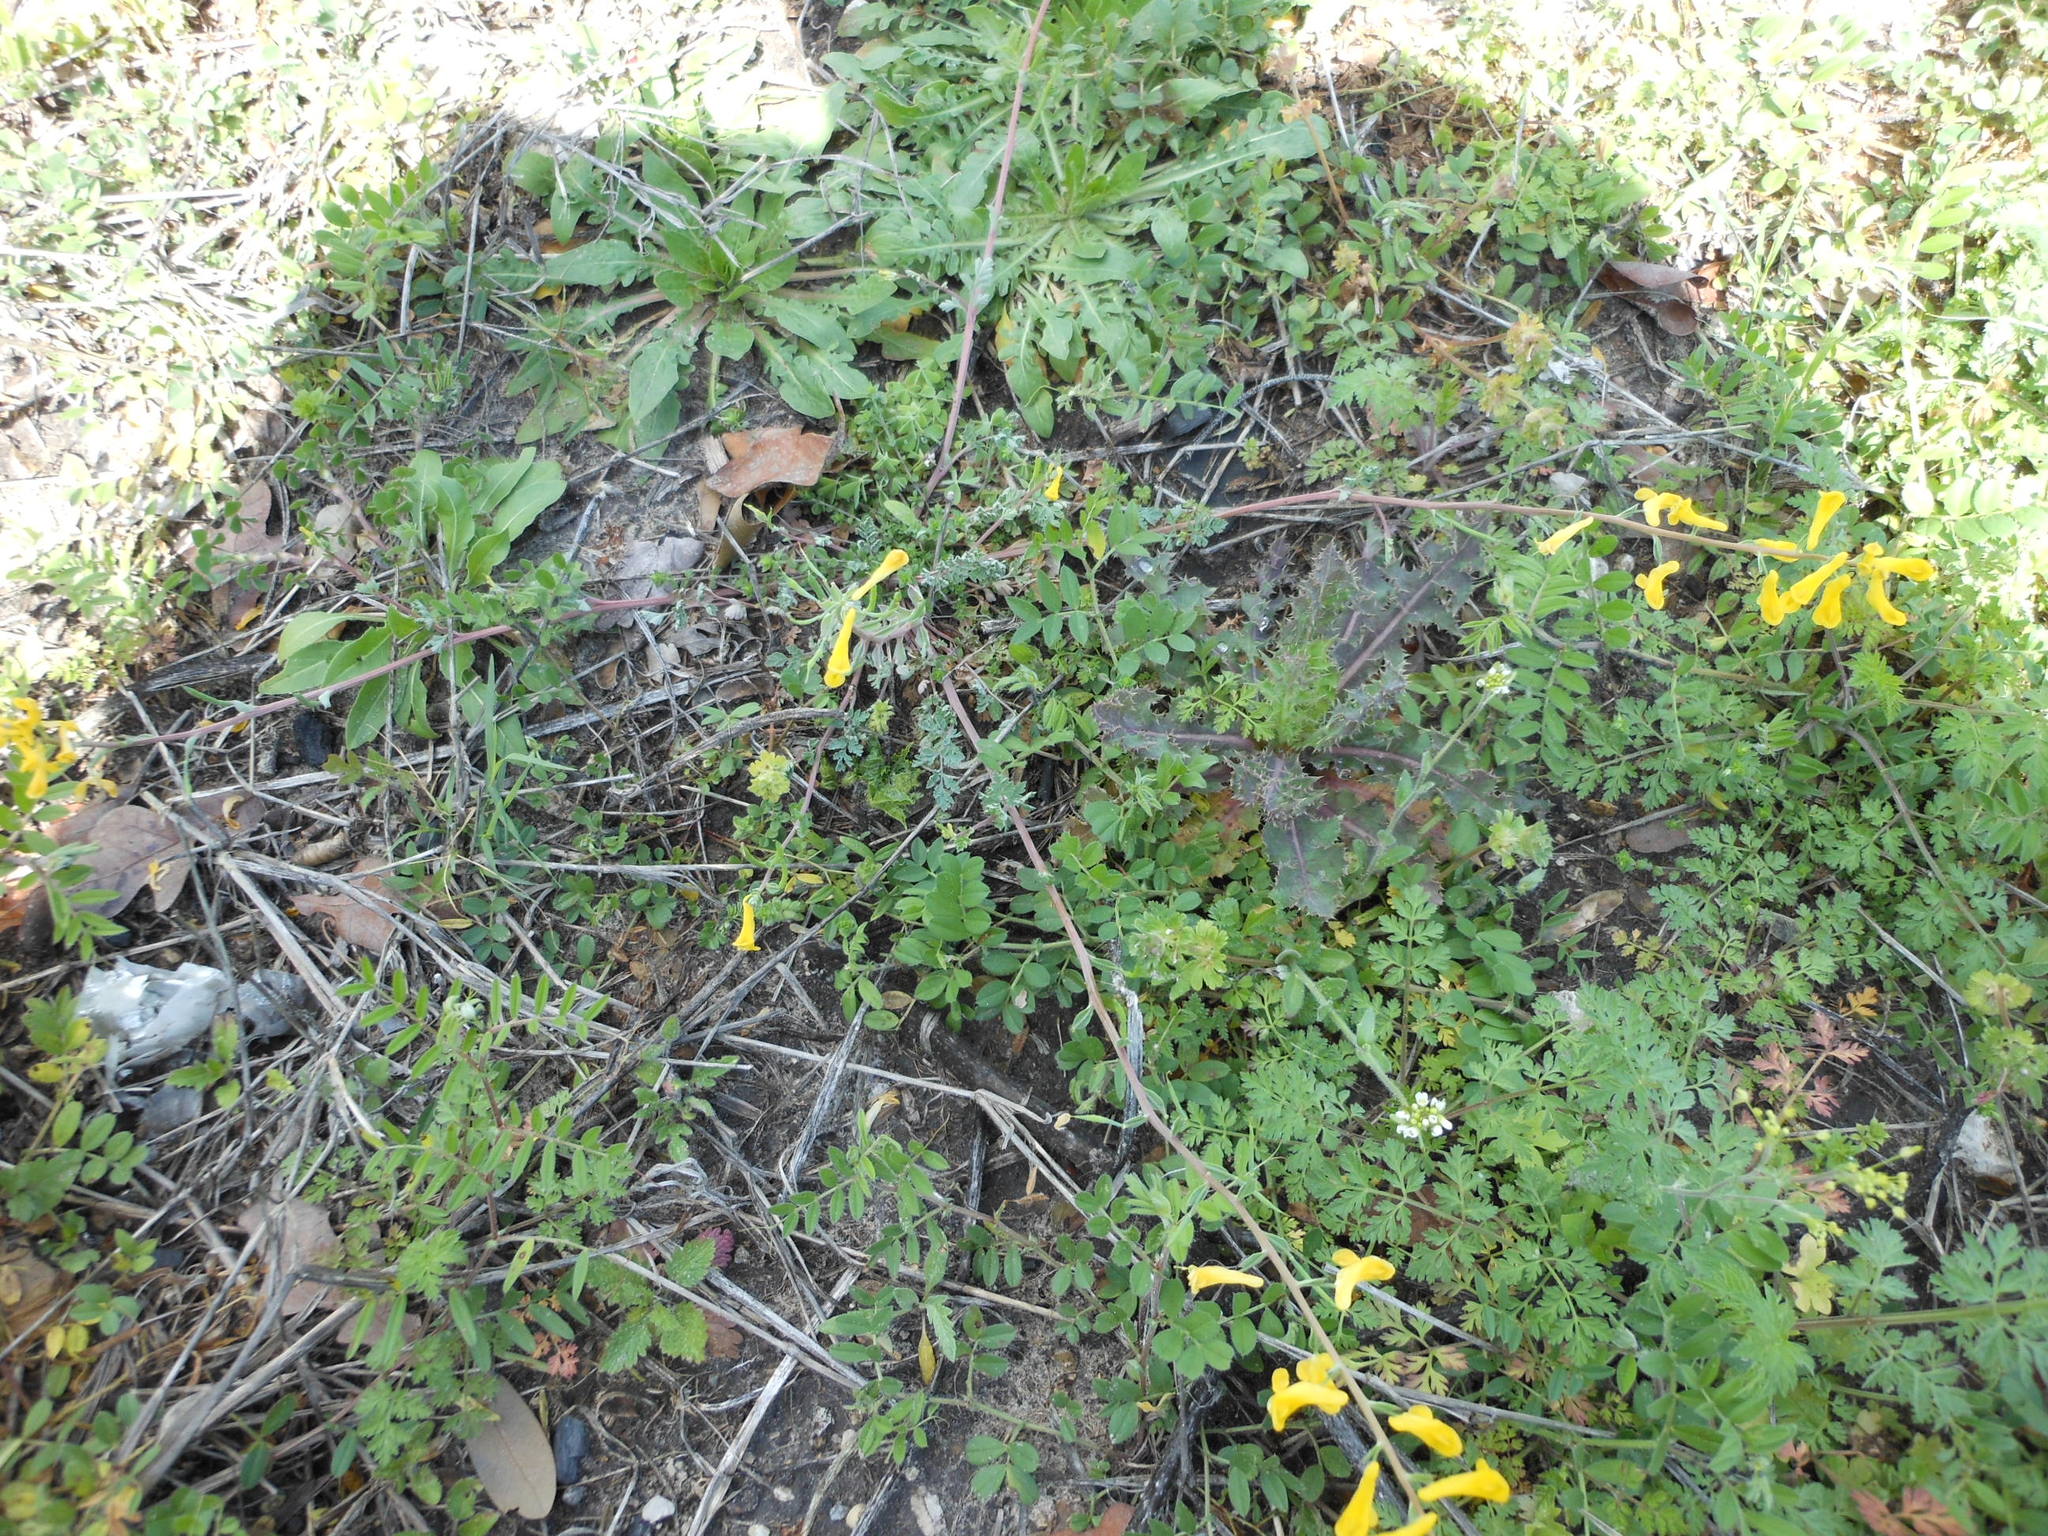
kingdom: Plantae
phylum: Tracheophyta
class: Magnoliopsida
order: Ranunculales
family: Papaveraceae
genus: Corydalis
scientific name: Corydalis curvisiliqua
